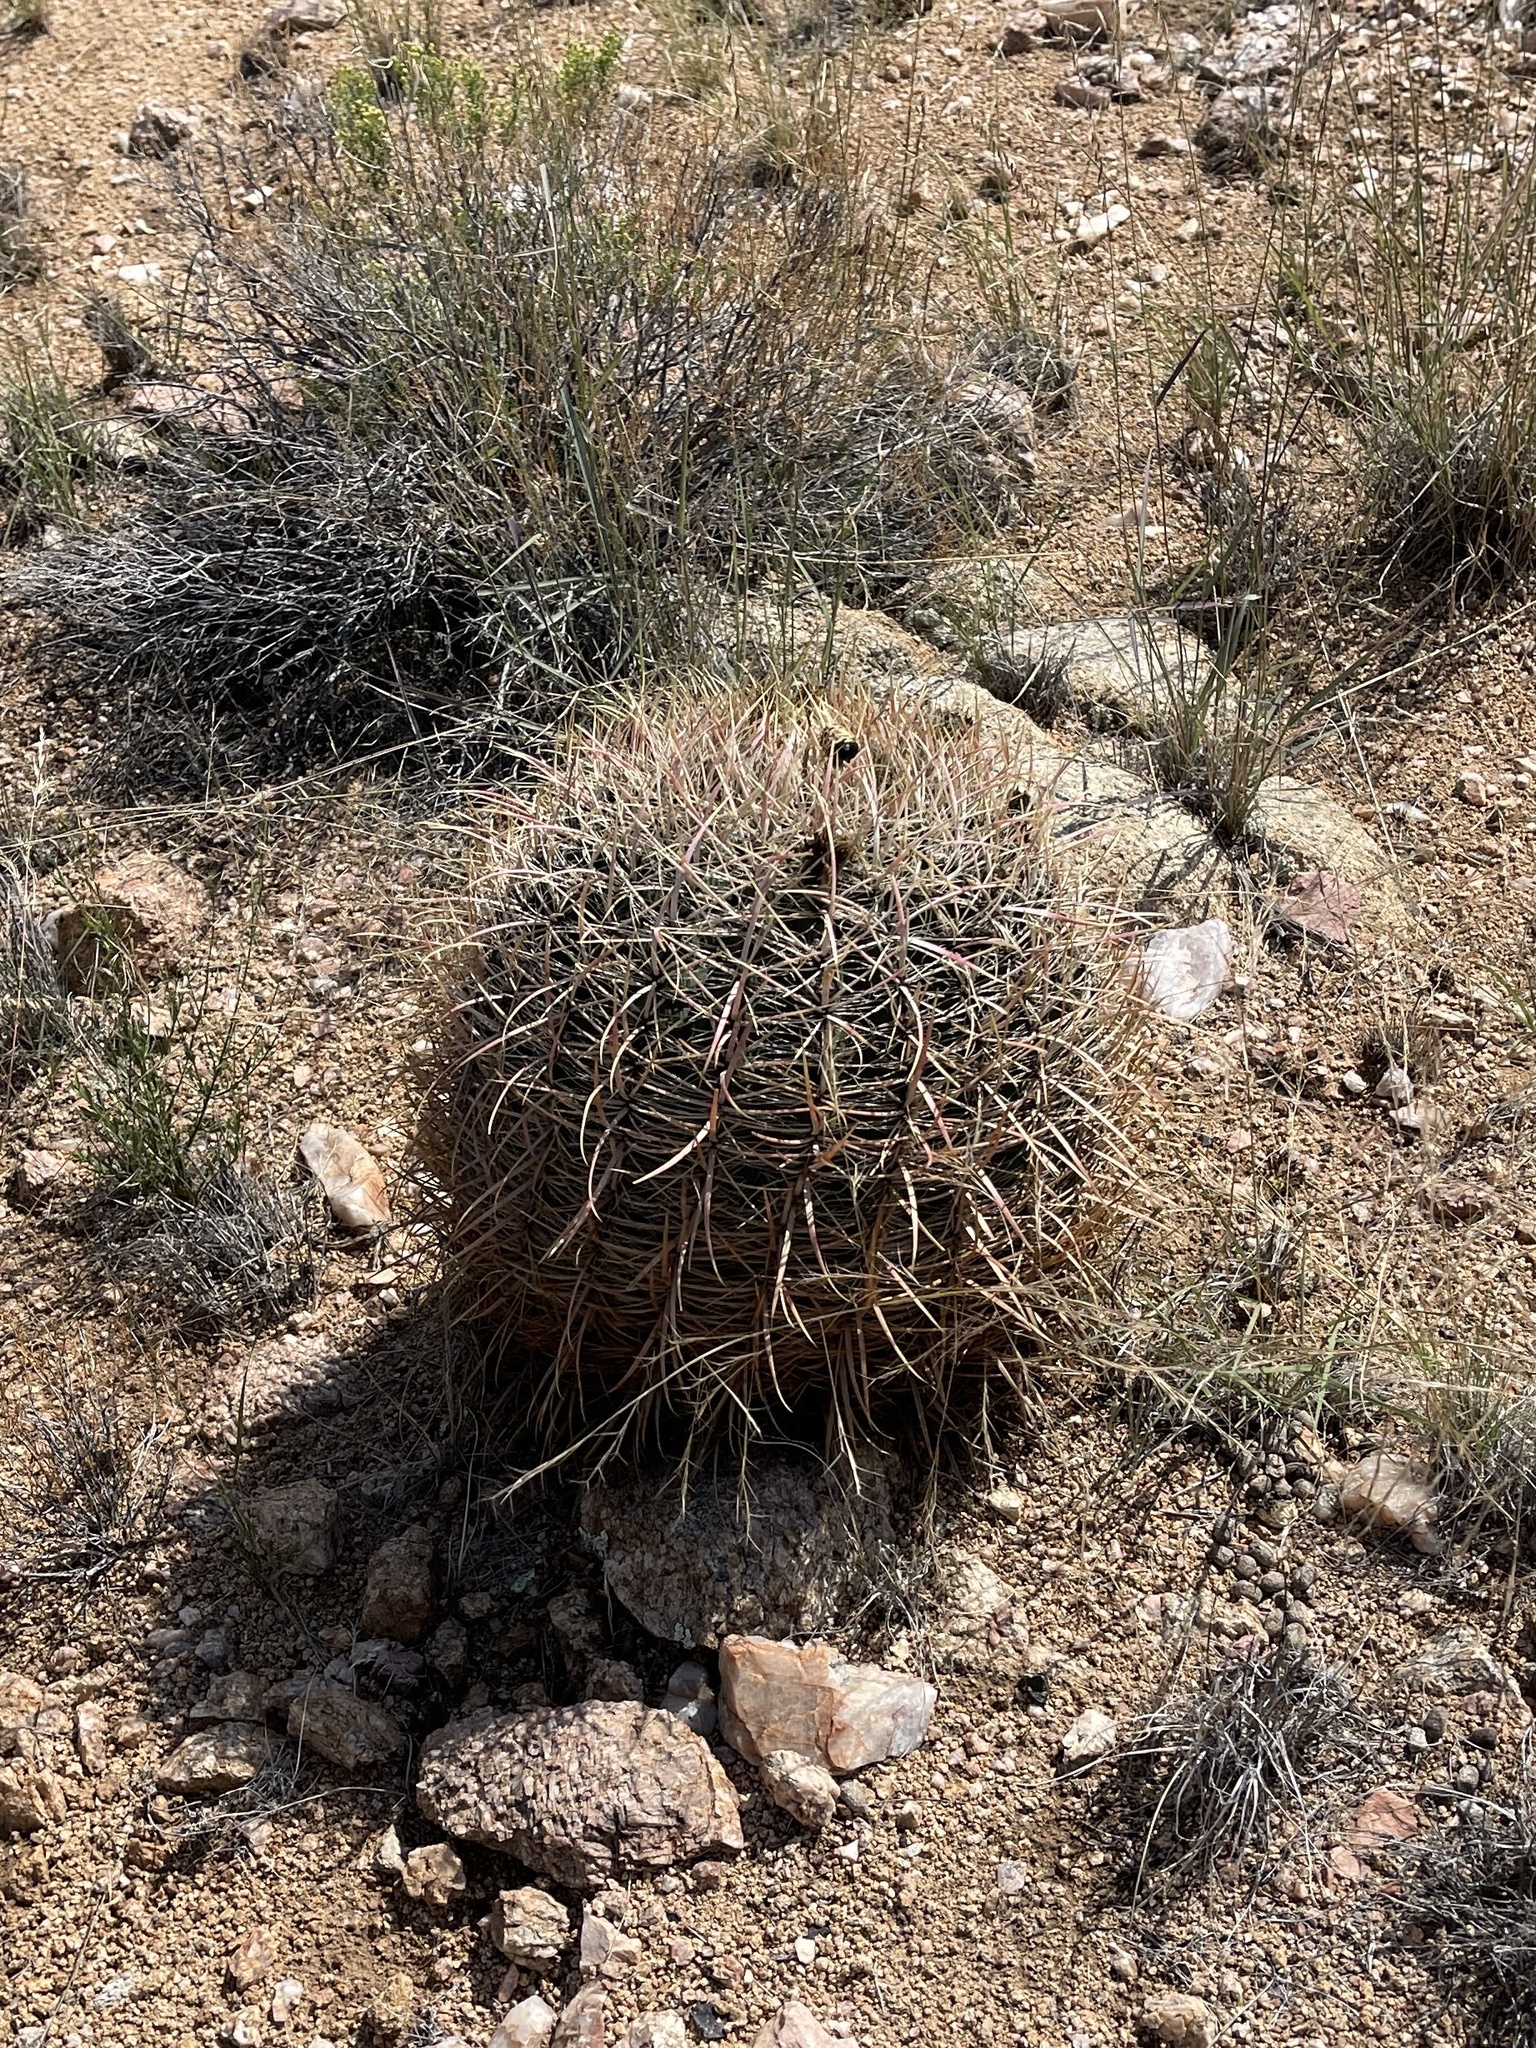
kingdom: Plantae
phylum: Tracheophyta
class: Magnoliopsida
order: Caryophyllales
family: Cactaceae
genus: Ferocactus
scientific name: Ferocactus cylindraceus
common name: California barrel cactus
